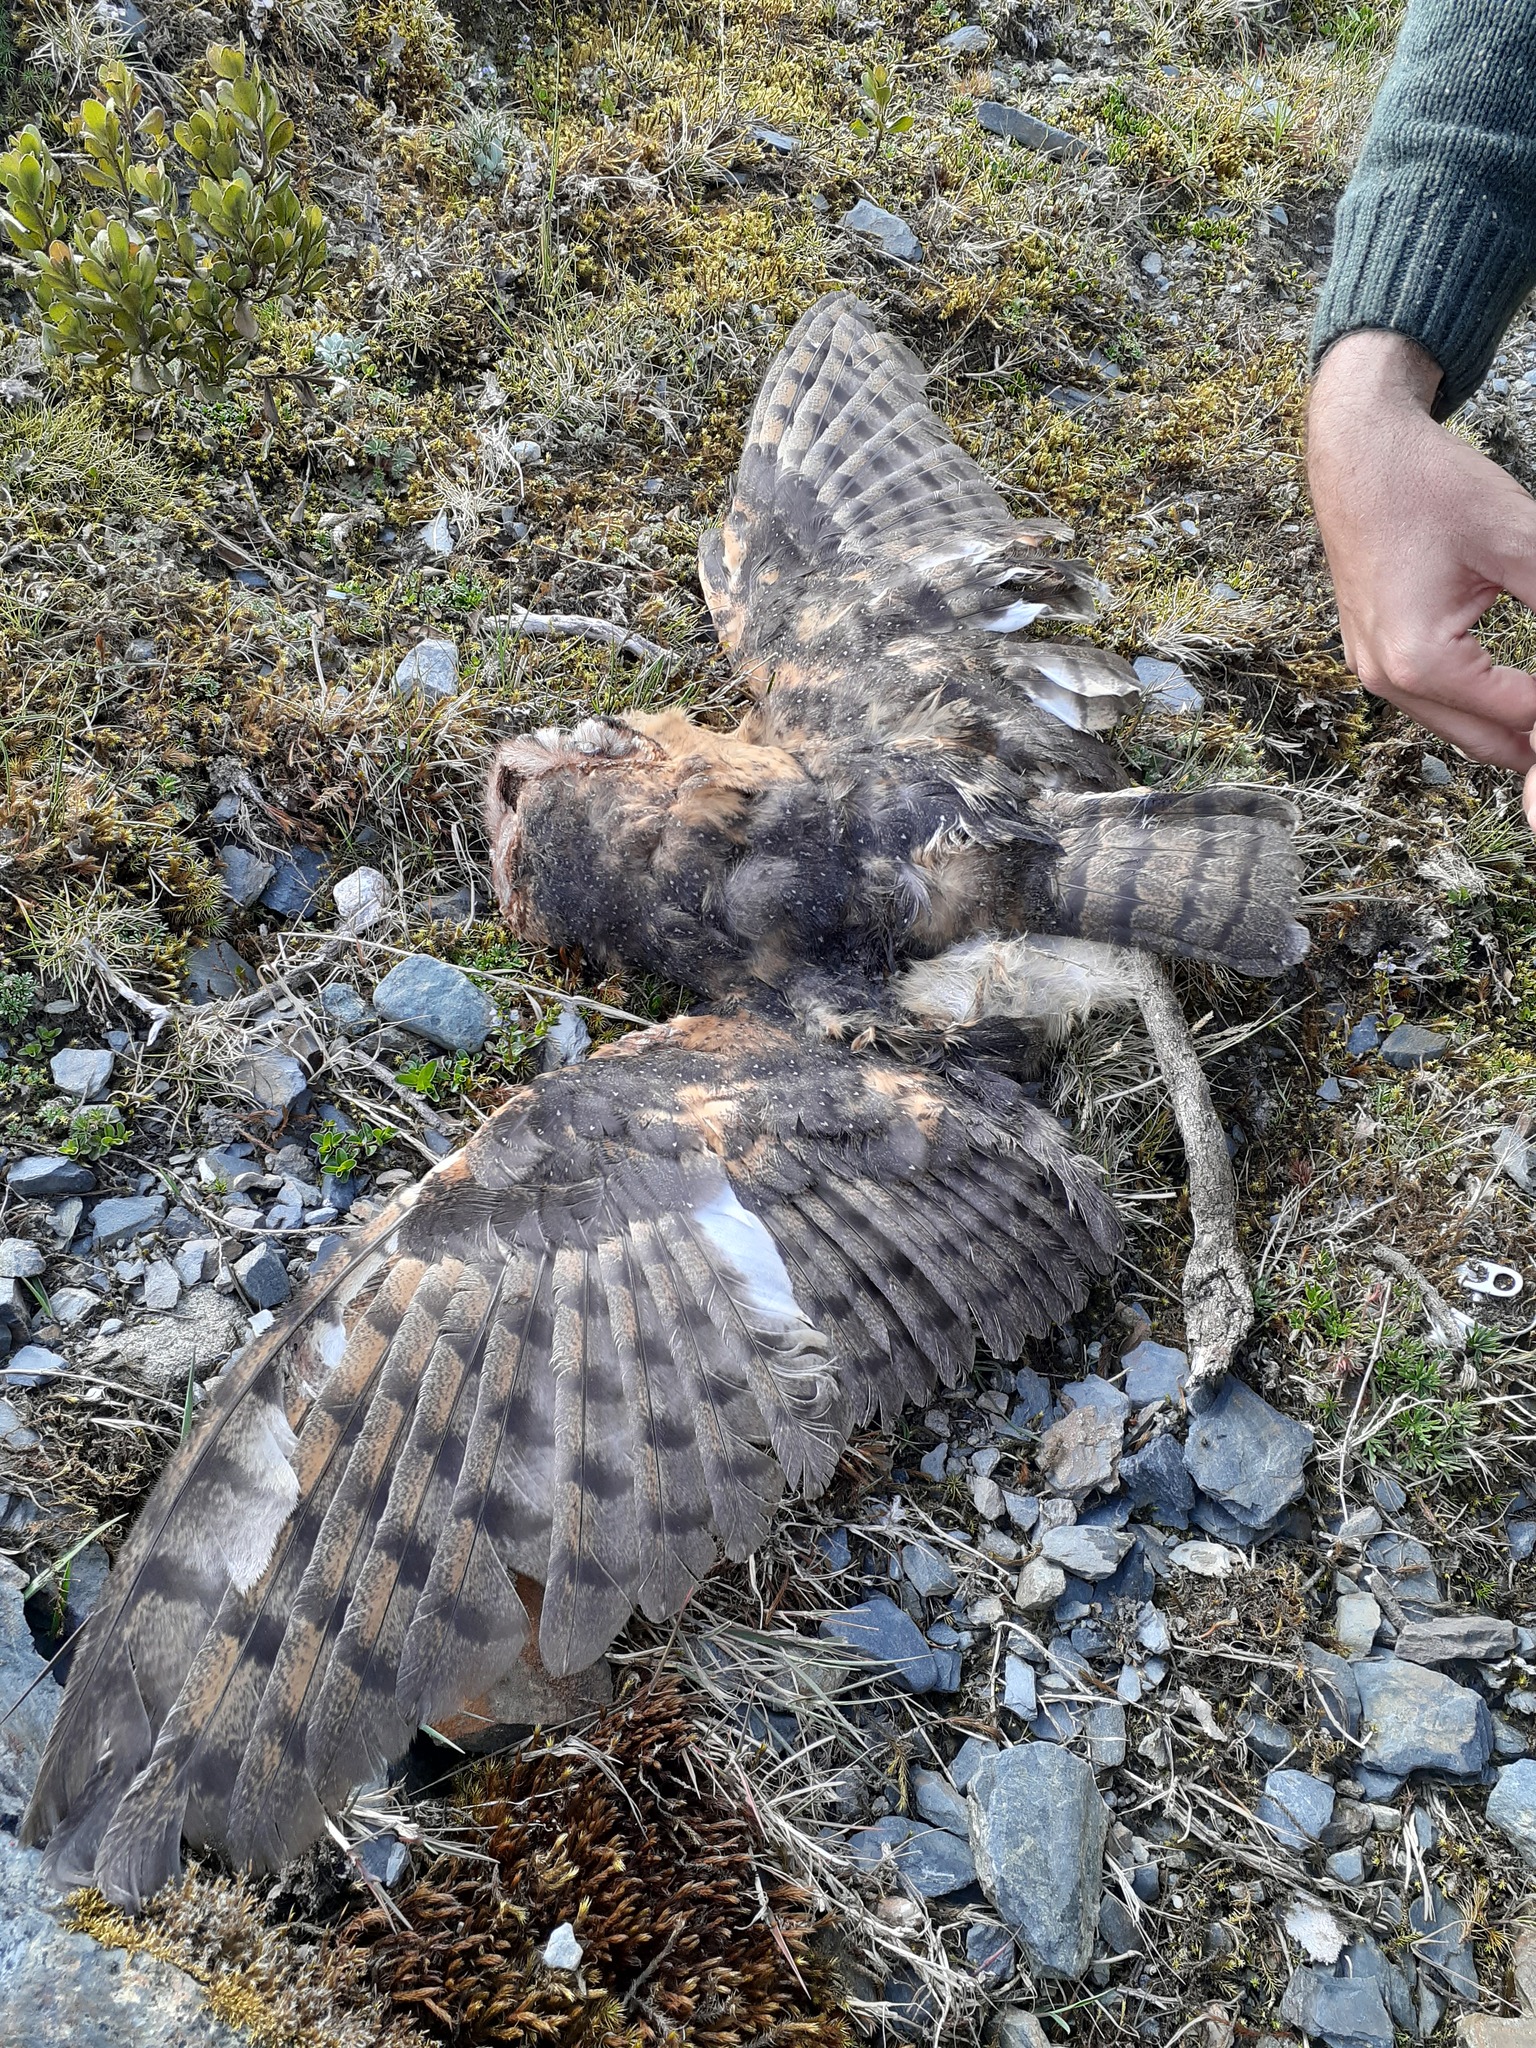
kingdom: Animalia
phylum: Chordata
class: Aves
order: Strigiformes
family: Tytonidae
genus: Tyto
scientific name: Tyto alba
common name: Barn owl
